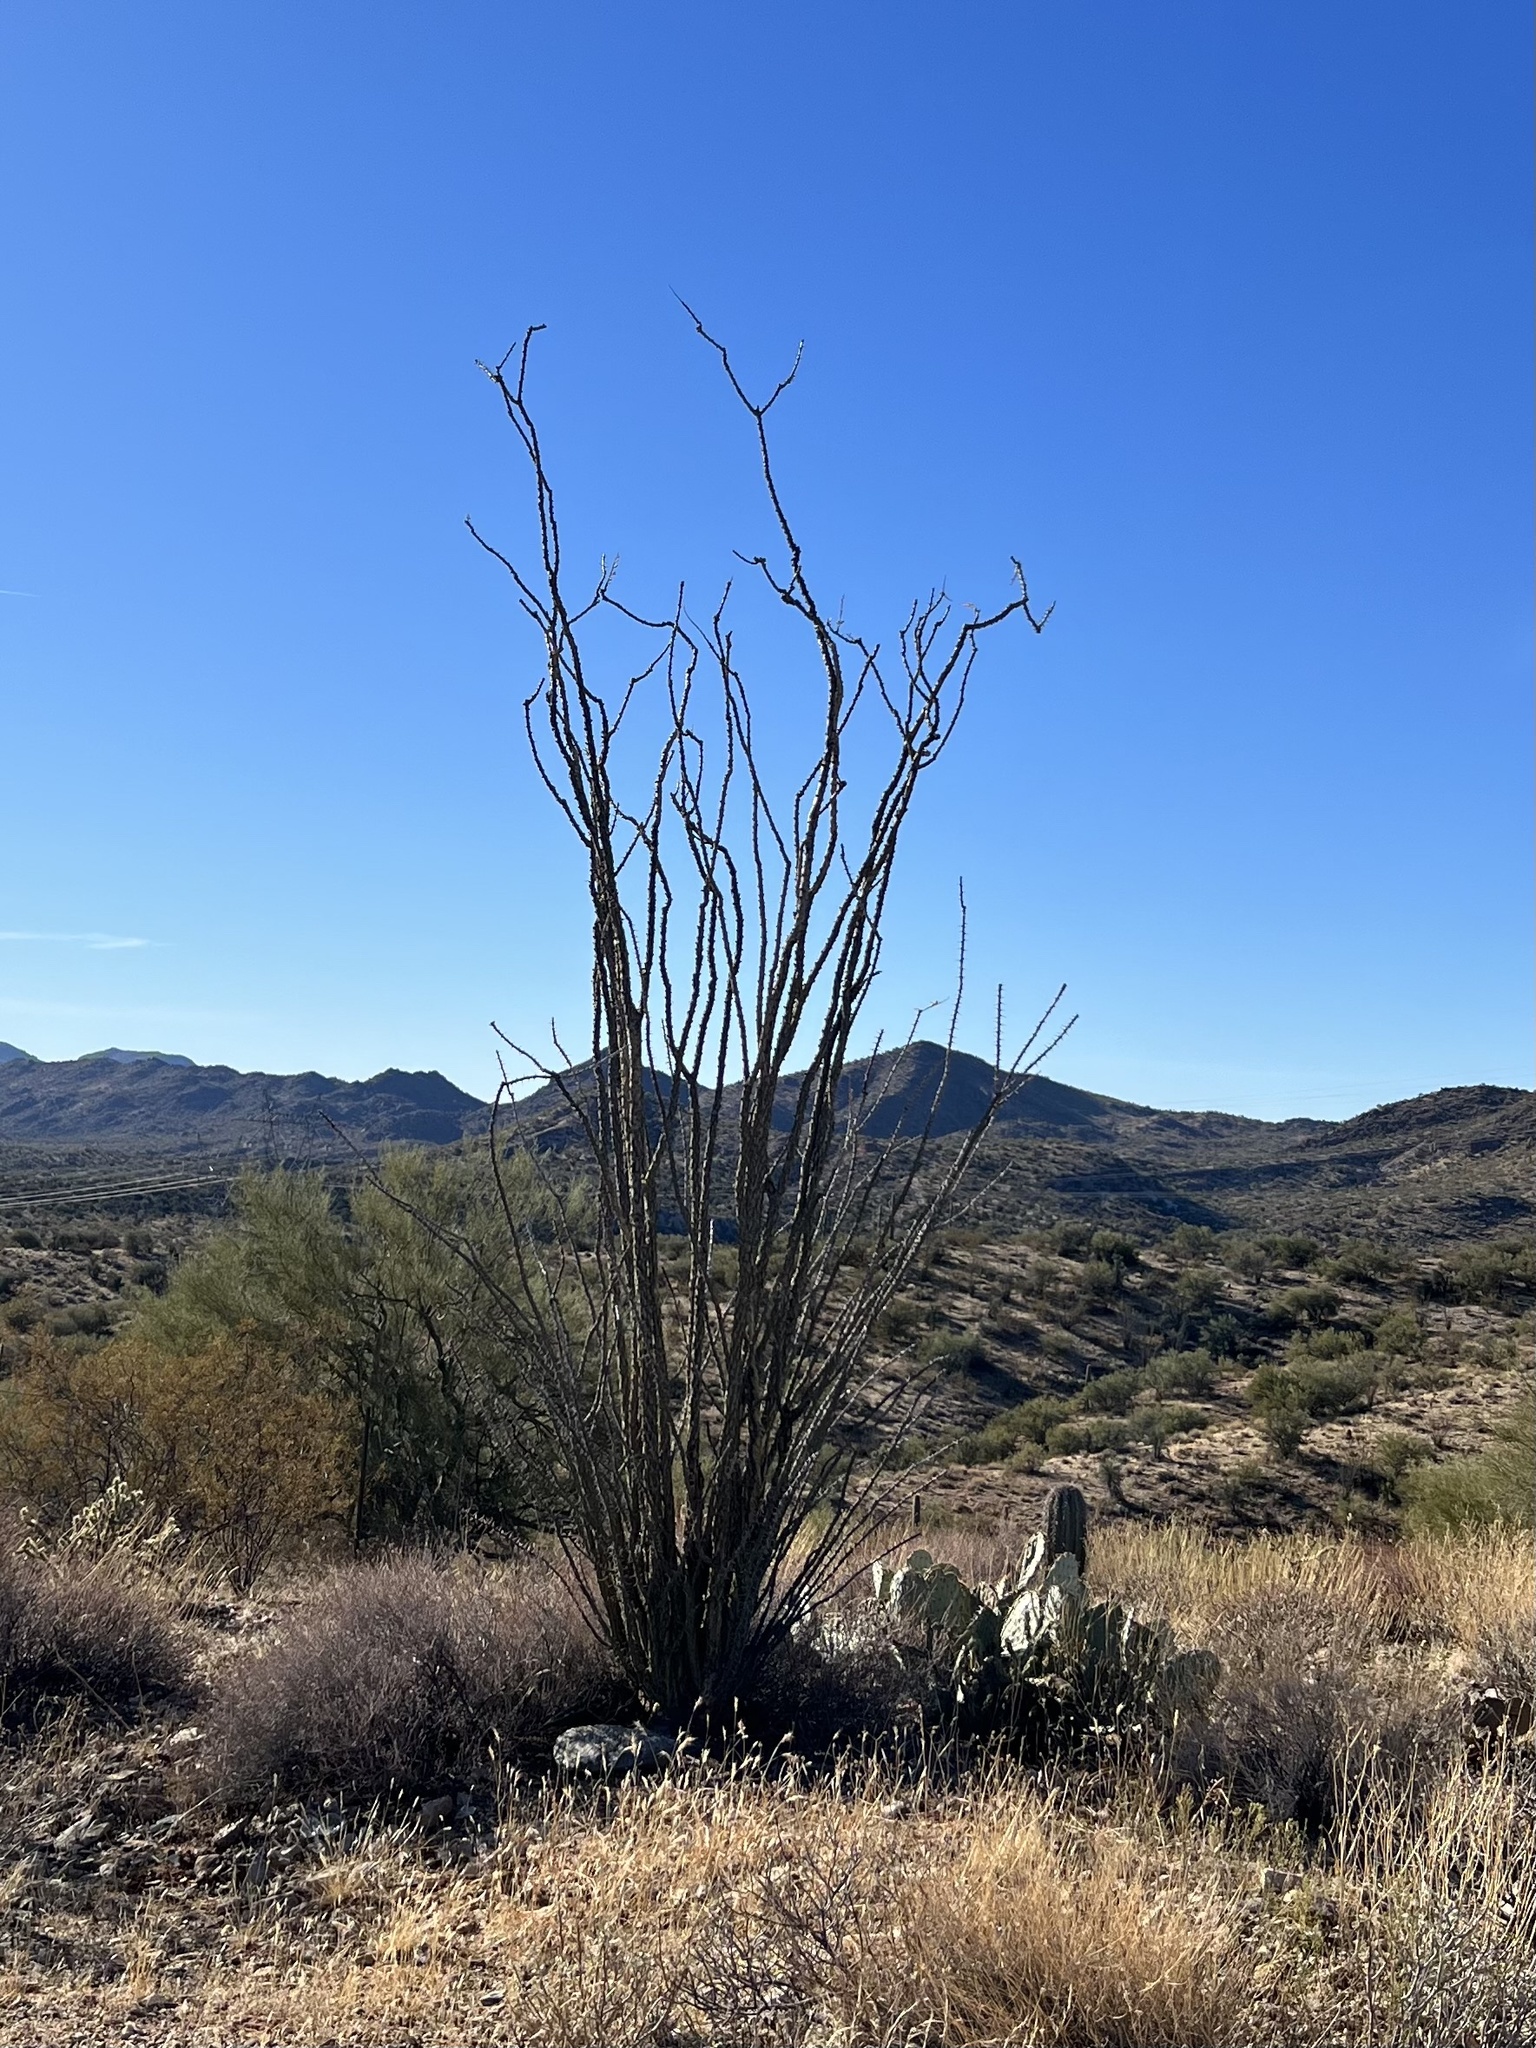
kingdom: Plantae
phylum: Tracheophyta
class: Magnoliopsida
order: Ericales
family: Fouquieriaceae
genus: Fouquieria
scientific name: Fouquieria splendens
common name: Vine-cactus
